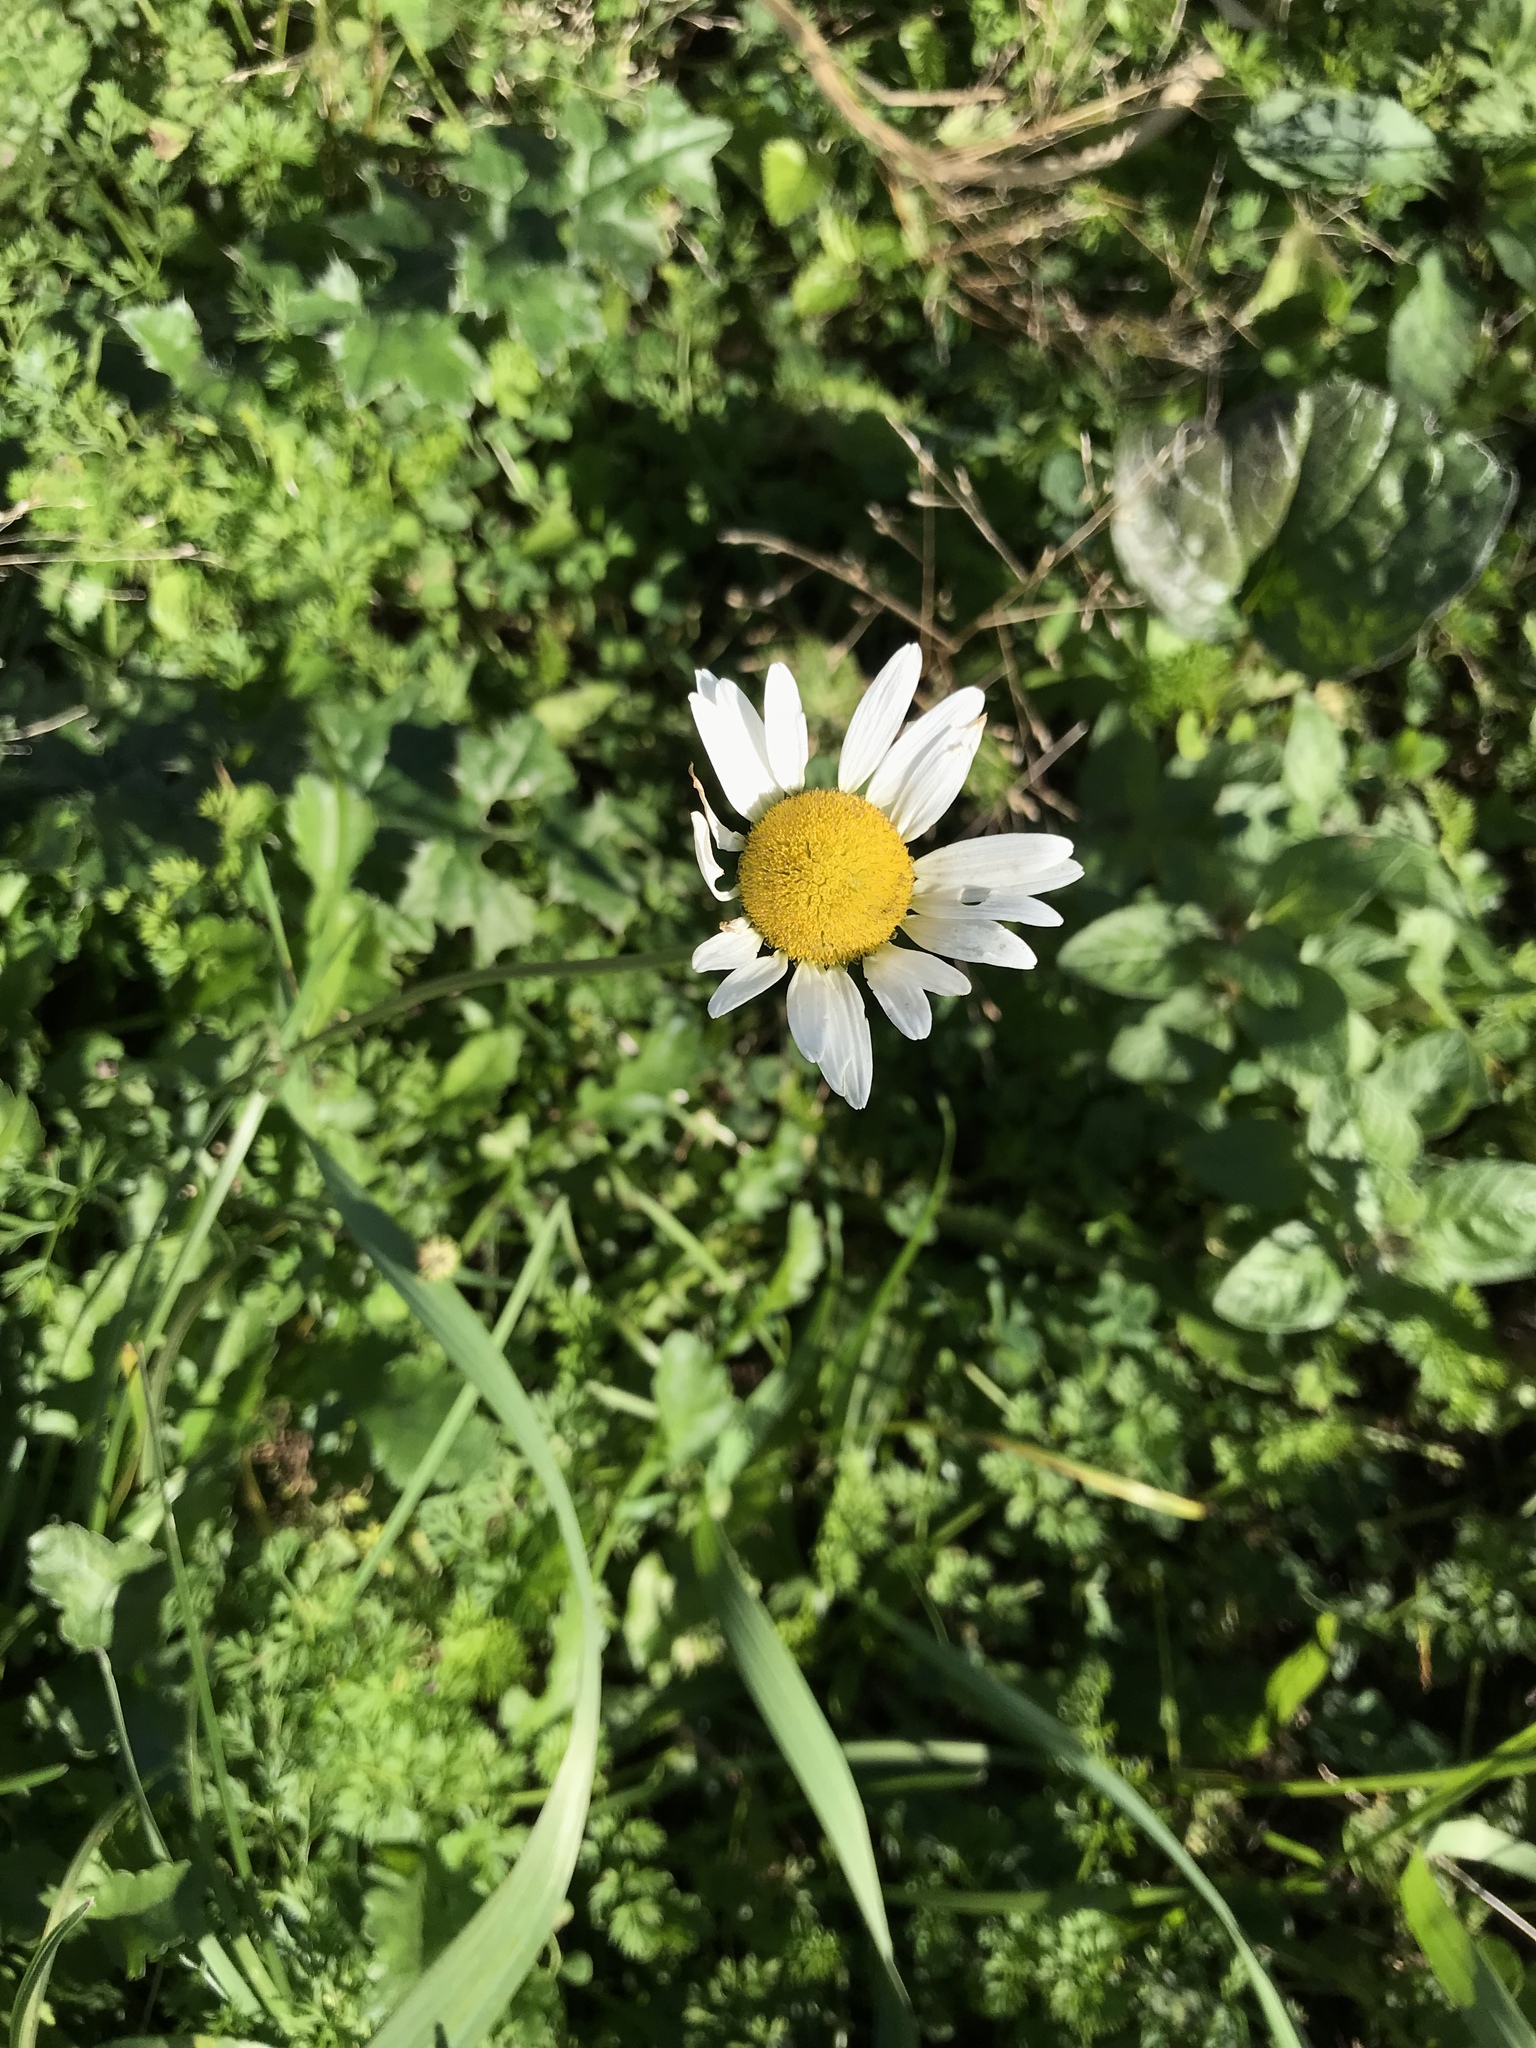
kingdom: Plantae
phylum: Tracheophyta
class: Magnoliopsida
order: Asterales
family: Asteraceae
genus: Leucanthemum
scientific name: Leucanthemum vulgare
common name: Oxeye daisy
